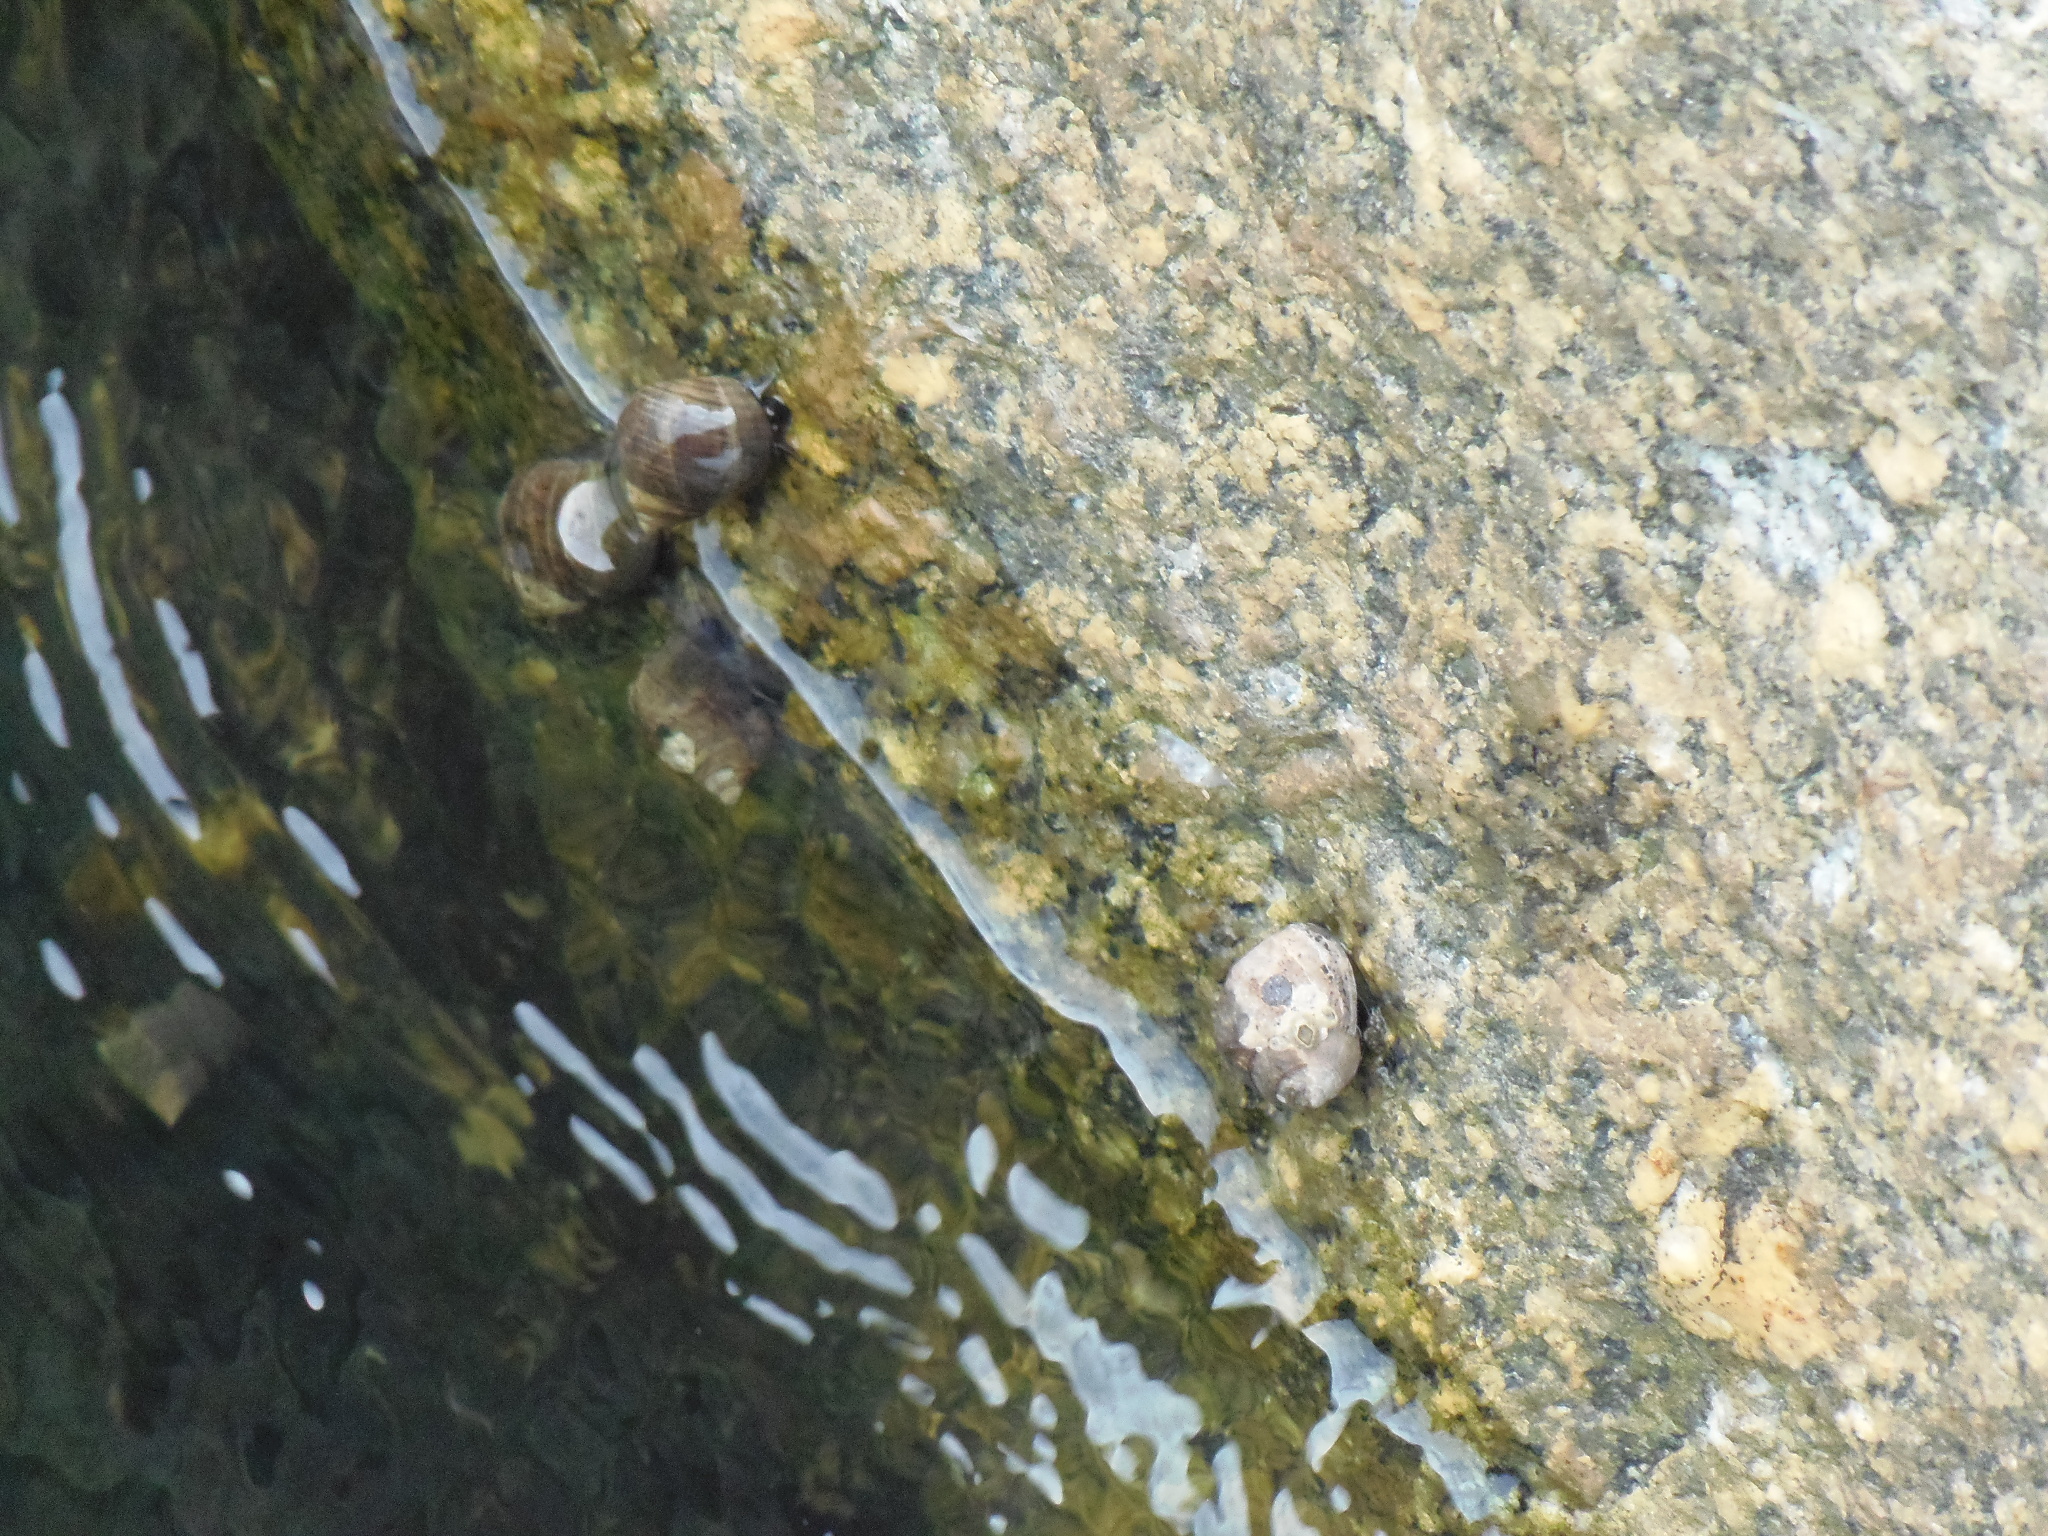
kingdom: Animalia
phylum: Mollusca
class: Gastropoda
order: Littorinimorpha
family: Littorinidae
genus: Littorina
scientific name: Littorina littorea
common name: Common periwinkle
